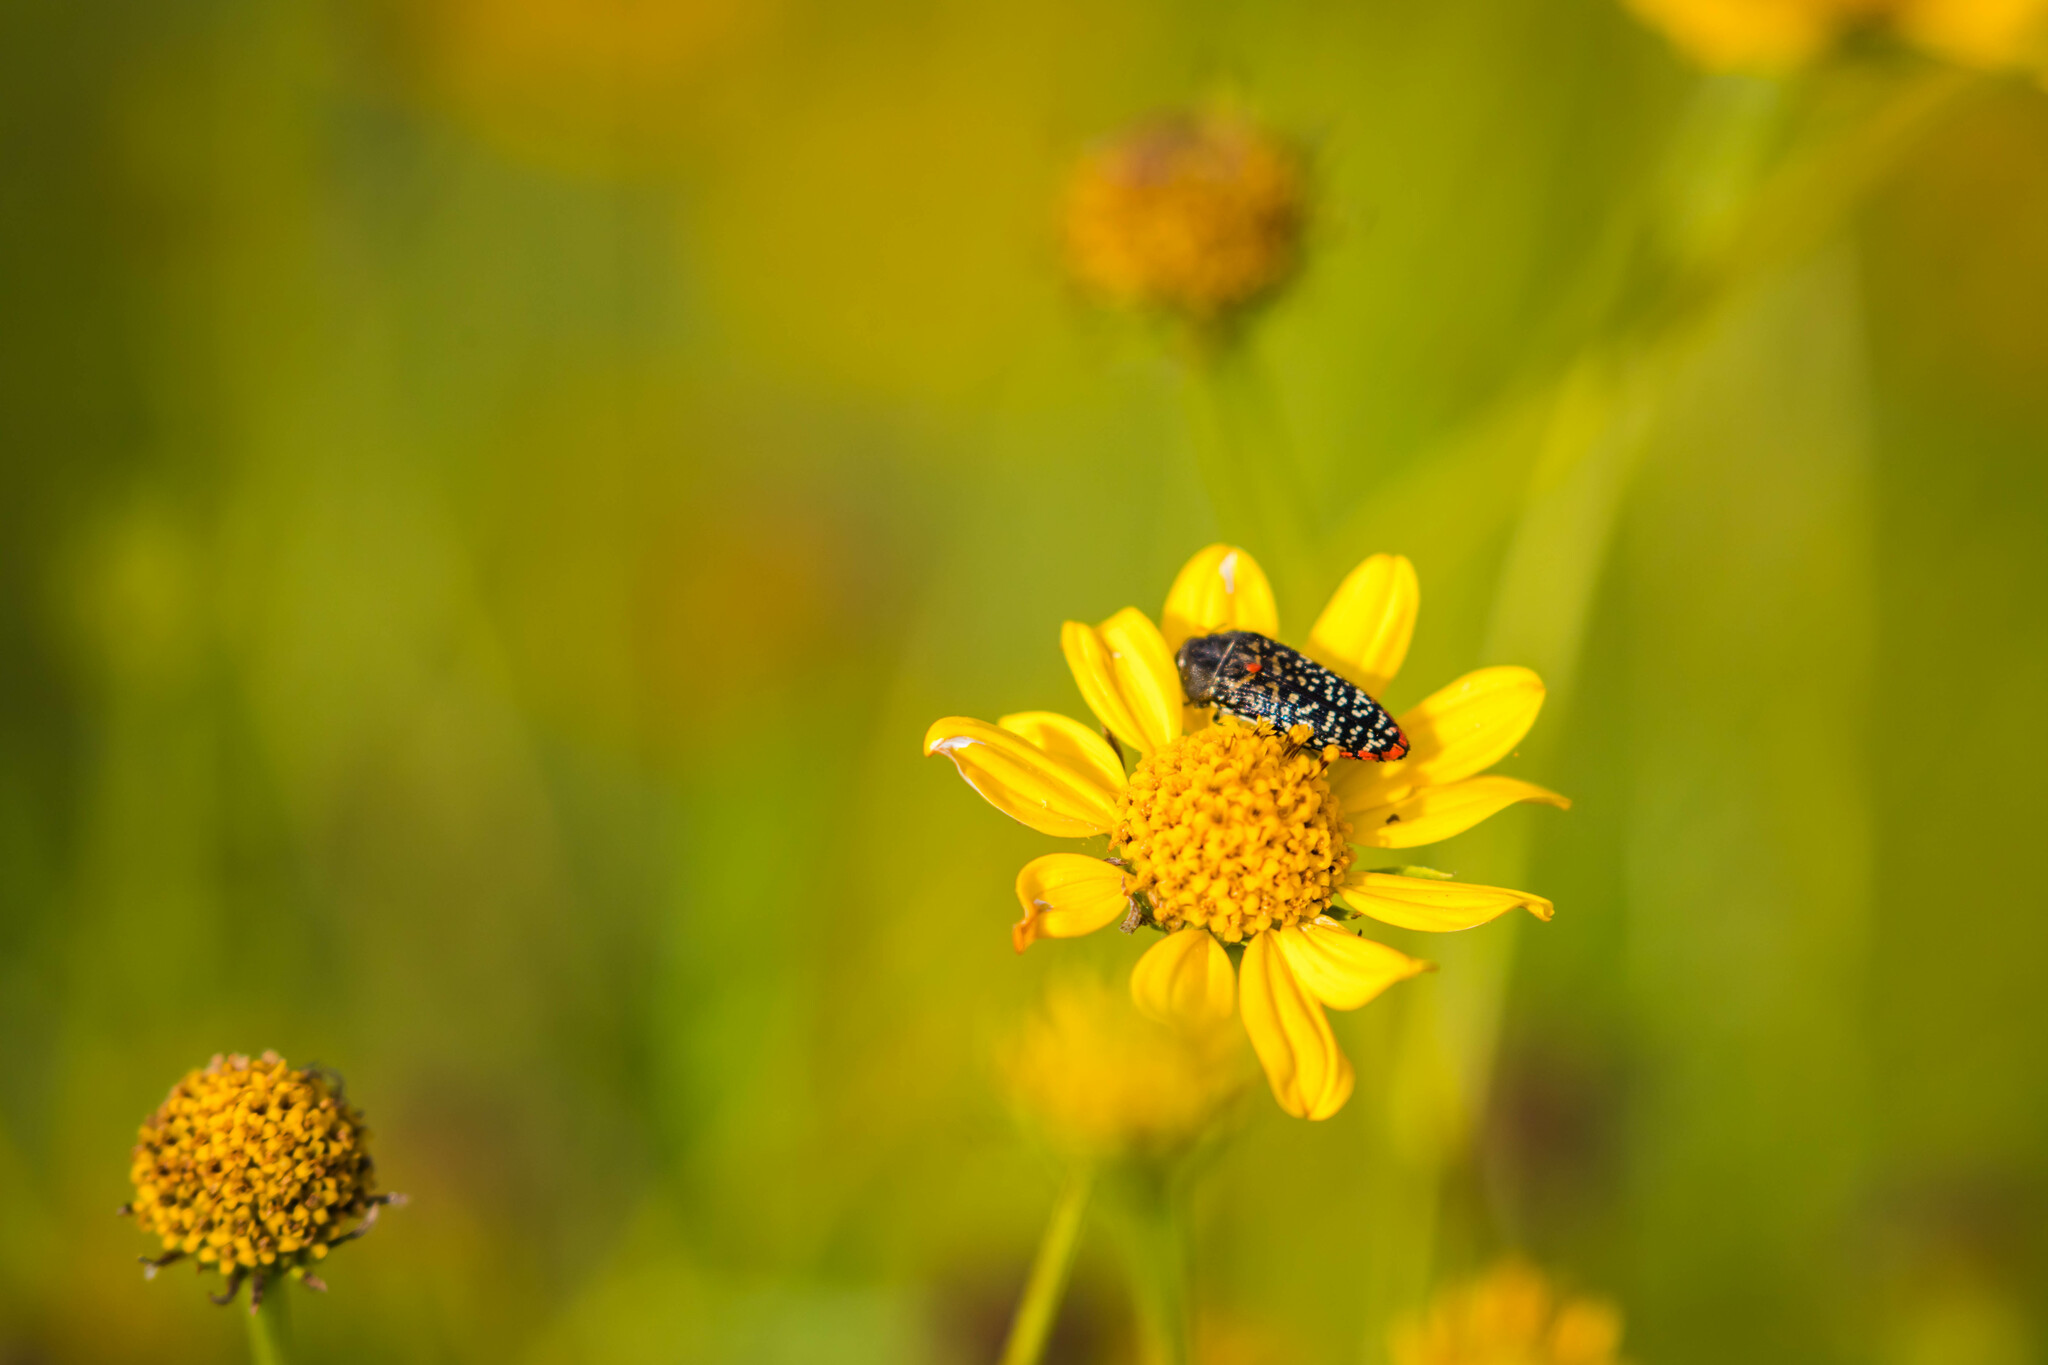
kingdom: Animalia
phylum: Arthropoda
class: Insecta
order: Coleoptera
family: Buprestidae
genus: Acmaeodera
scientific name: Acmaeodera haemorrhoa
